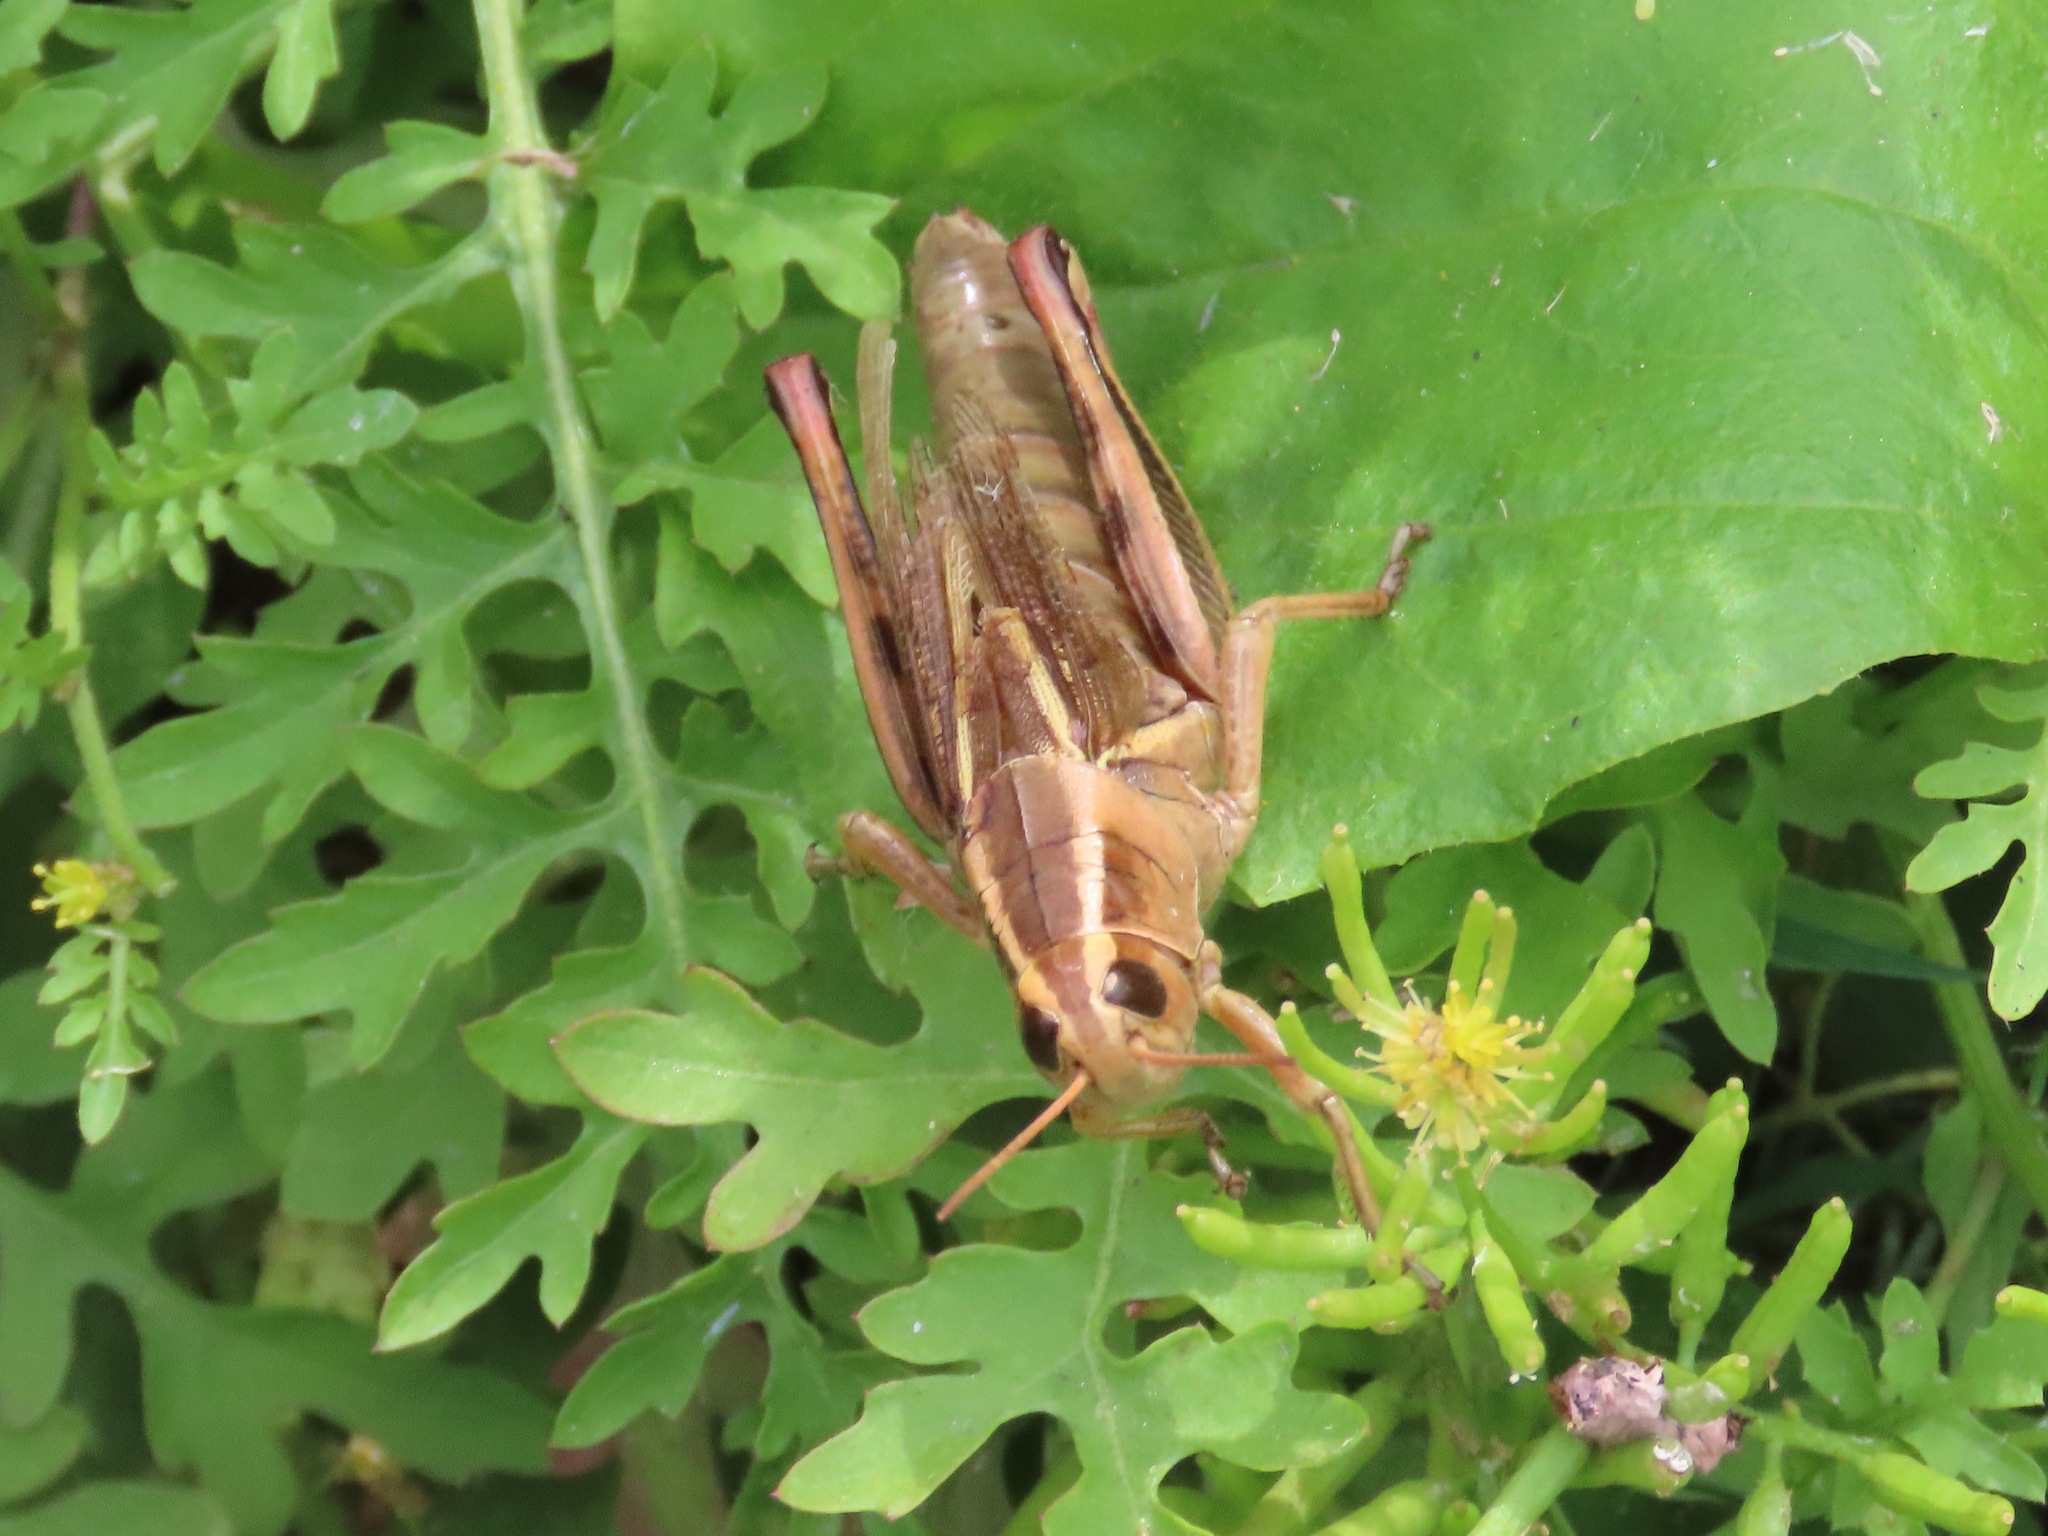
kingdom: Animalia
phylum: Arthropoda
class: Insecta
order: Orthoptera
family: Acrididae
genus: Melanoplus
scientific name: Melanoplus bivittatus
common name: Two-striped grasshopper
